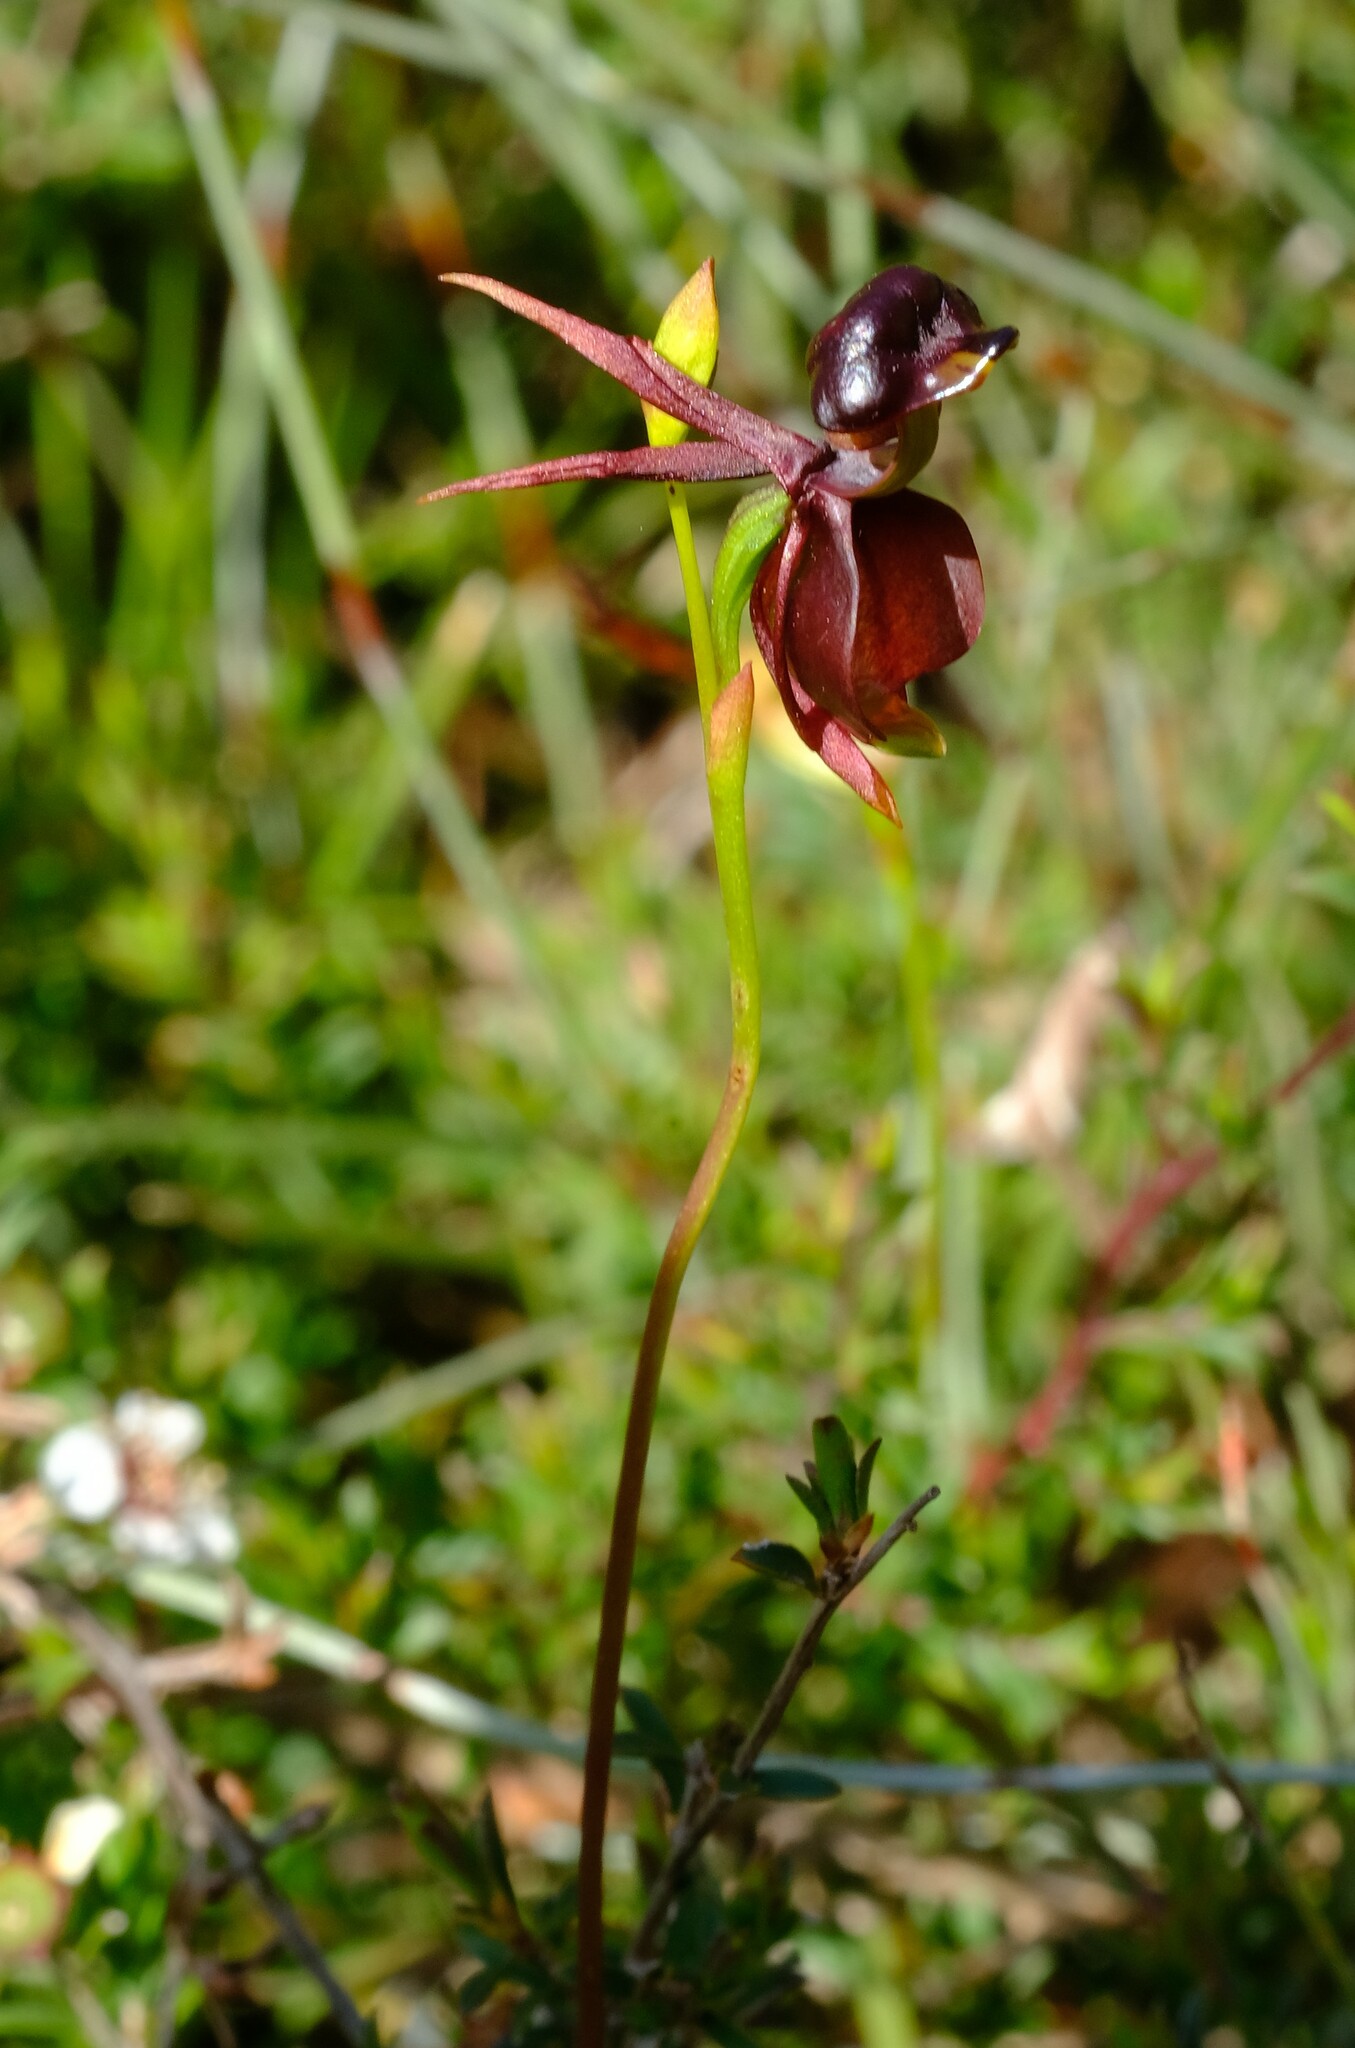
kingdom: Plantae
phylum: Tracheophyta
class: Liliopsida
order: Asparagales
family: Orchidaceae
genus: Caleana
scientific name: Caleana major
